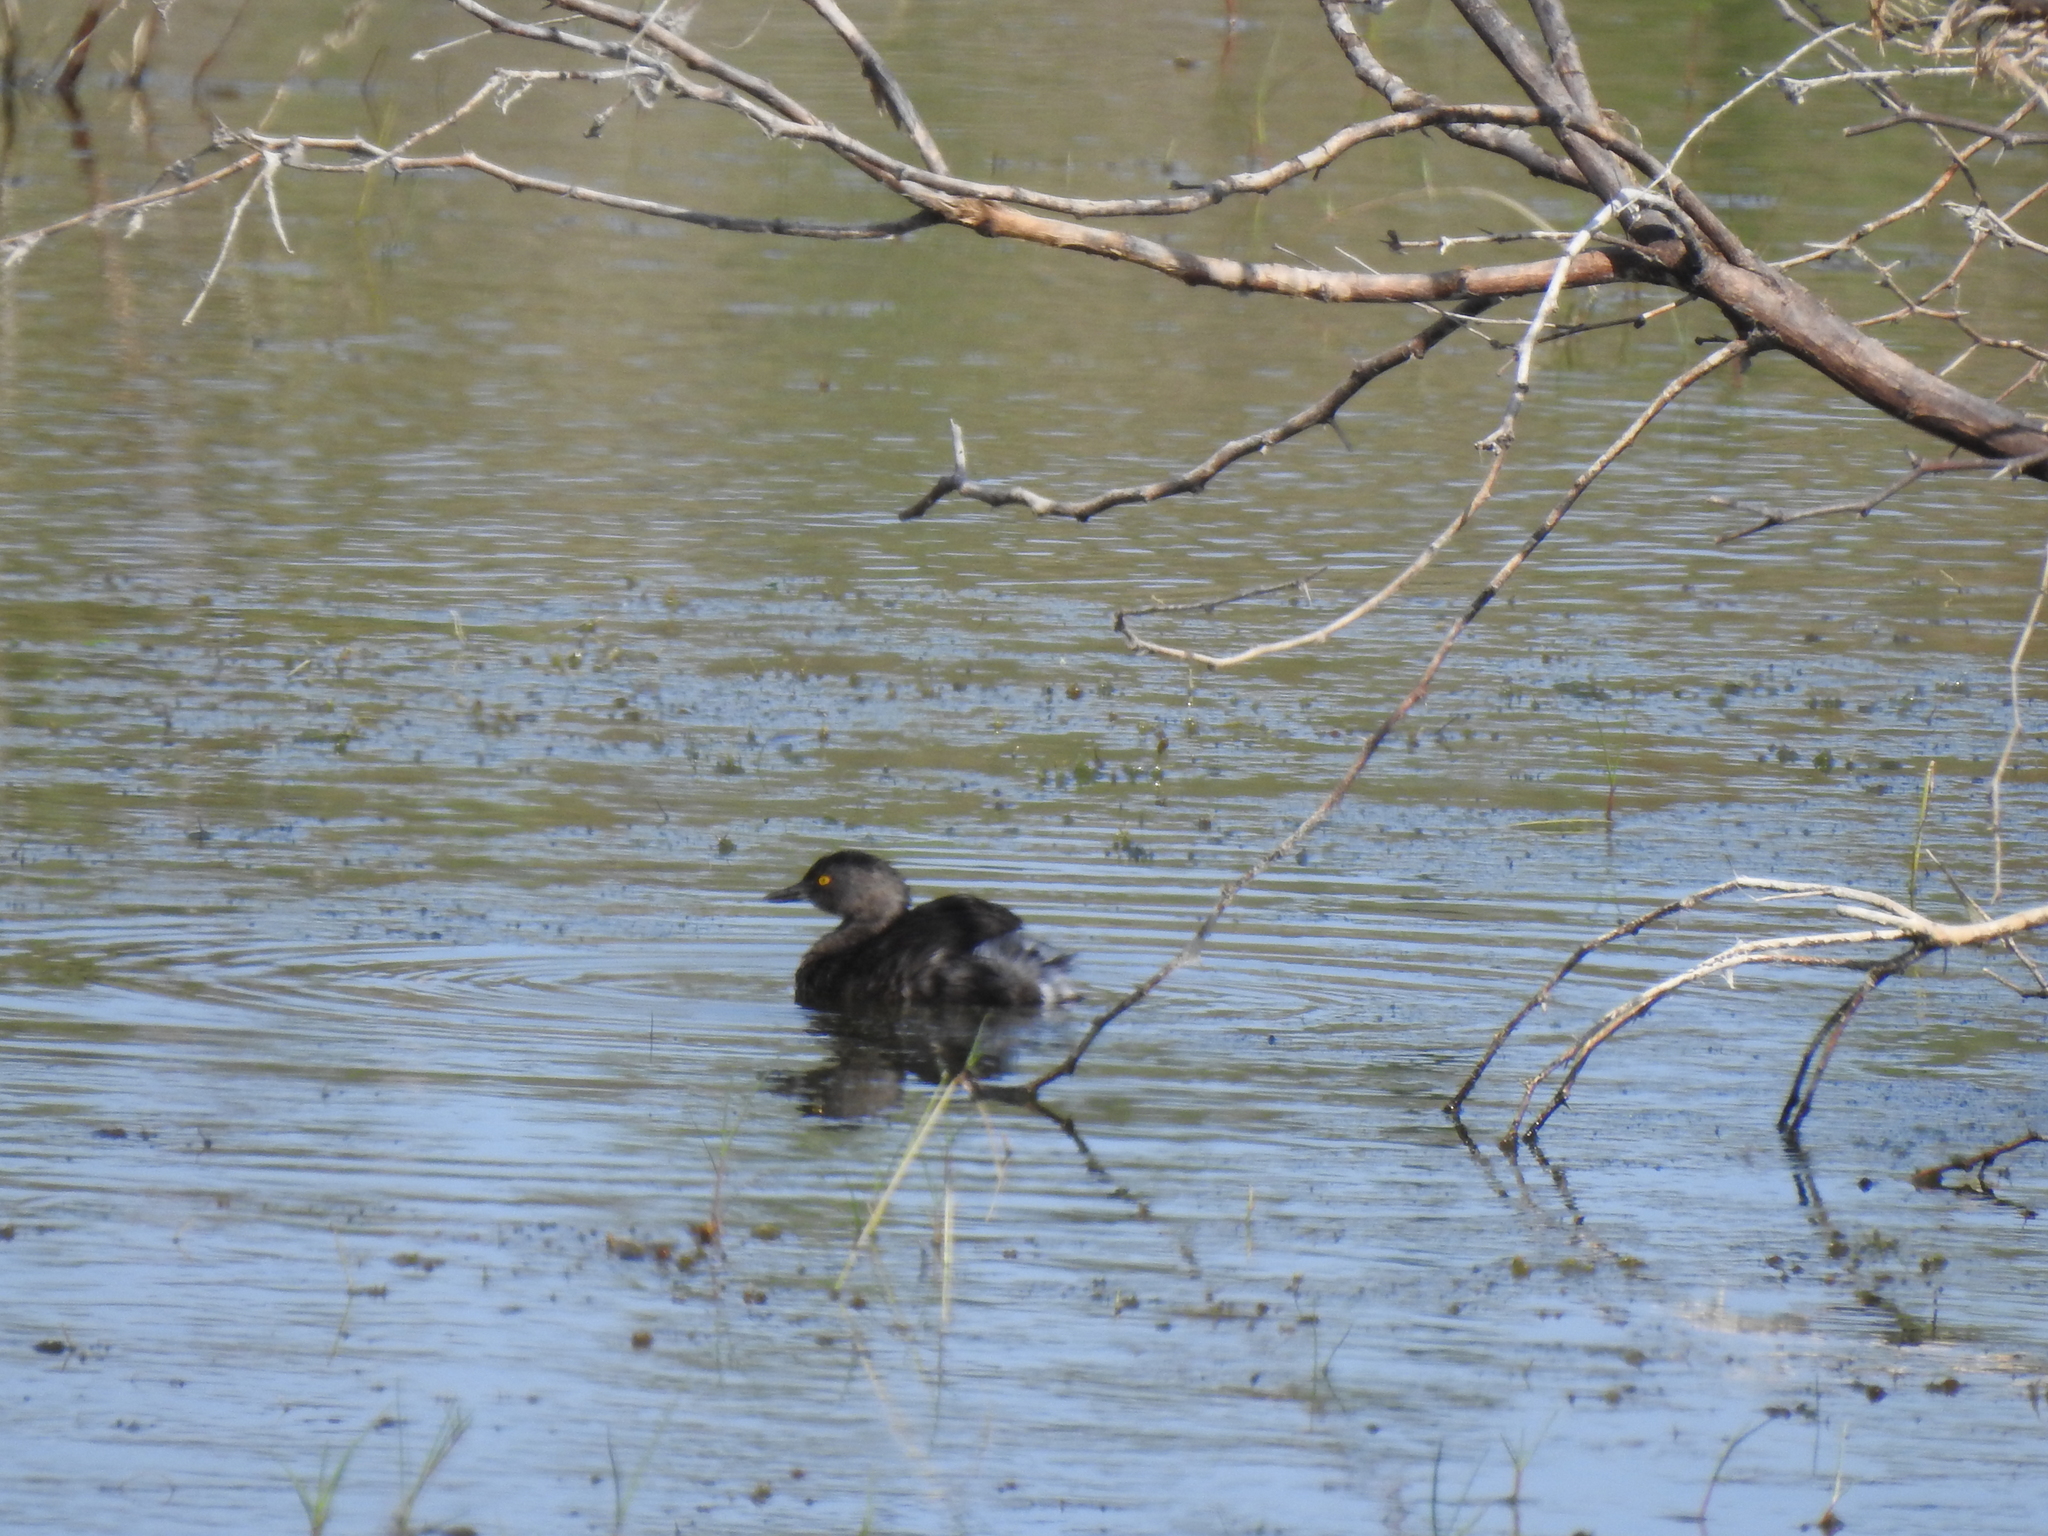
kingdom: Animalia
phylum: Chordata
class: Aves
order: Podicipediformes
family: Podicipedidae
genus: Tachybaptus
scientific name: Tachybaptus dominicus
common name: Least grebe
